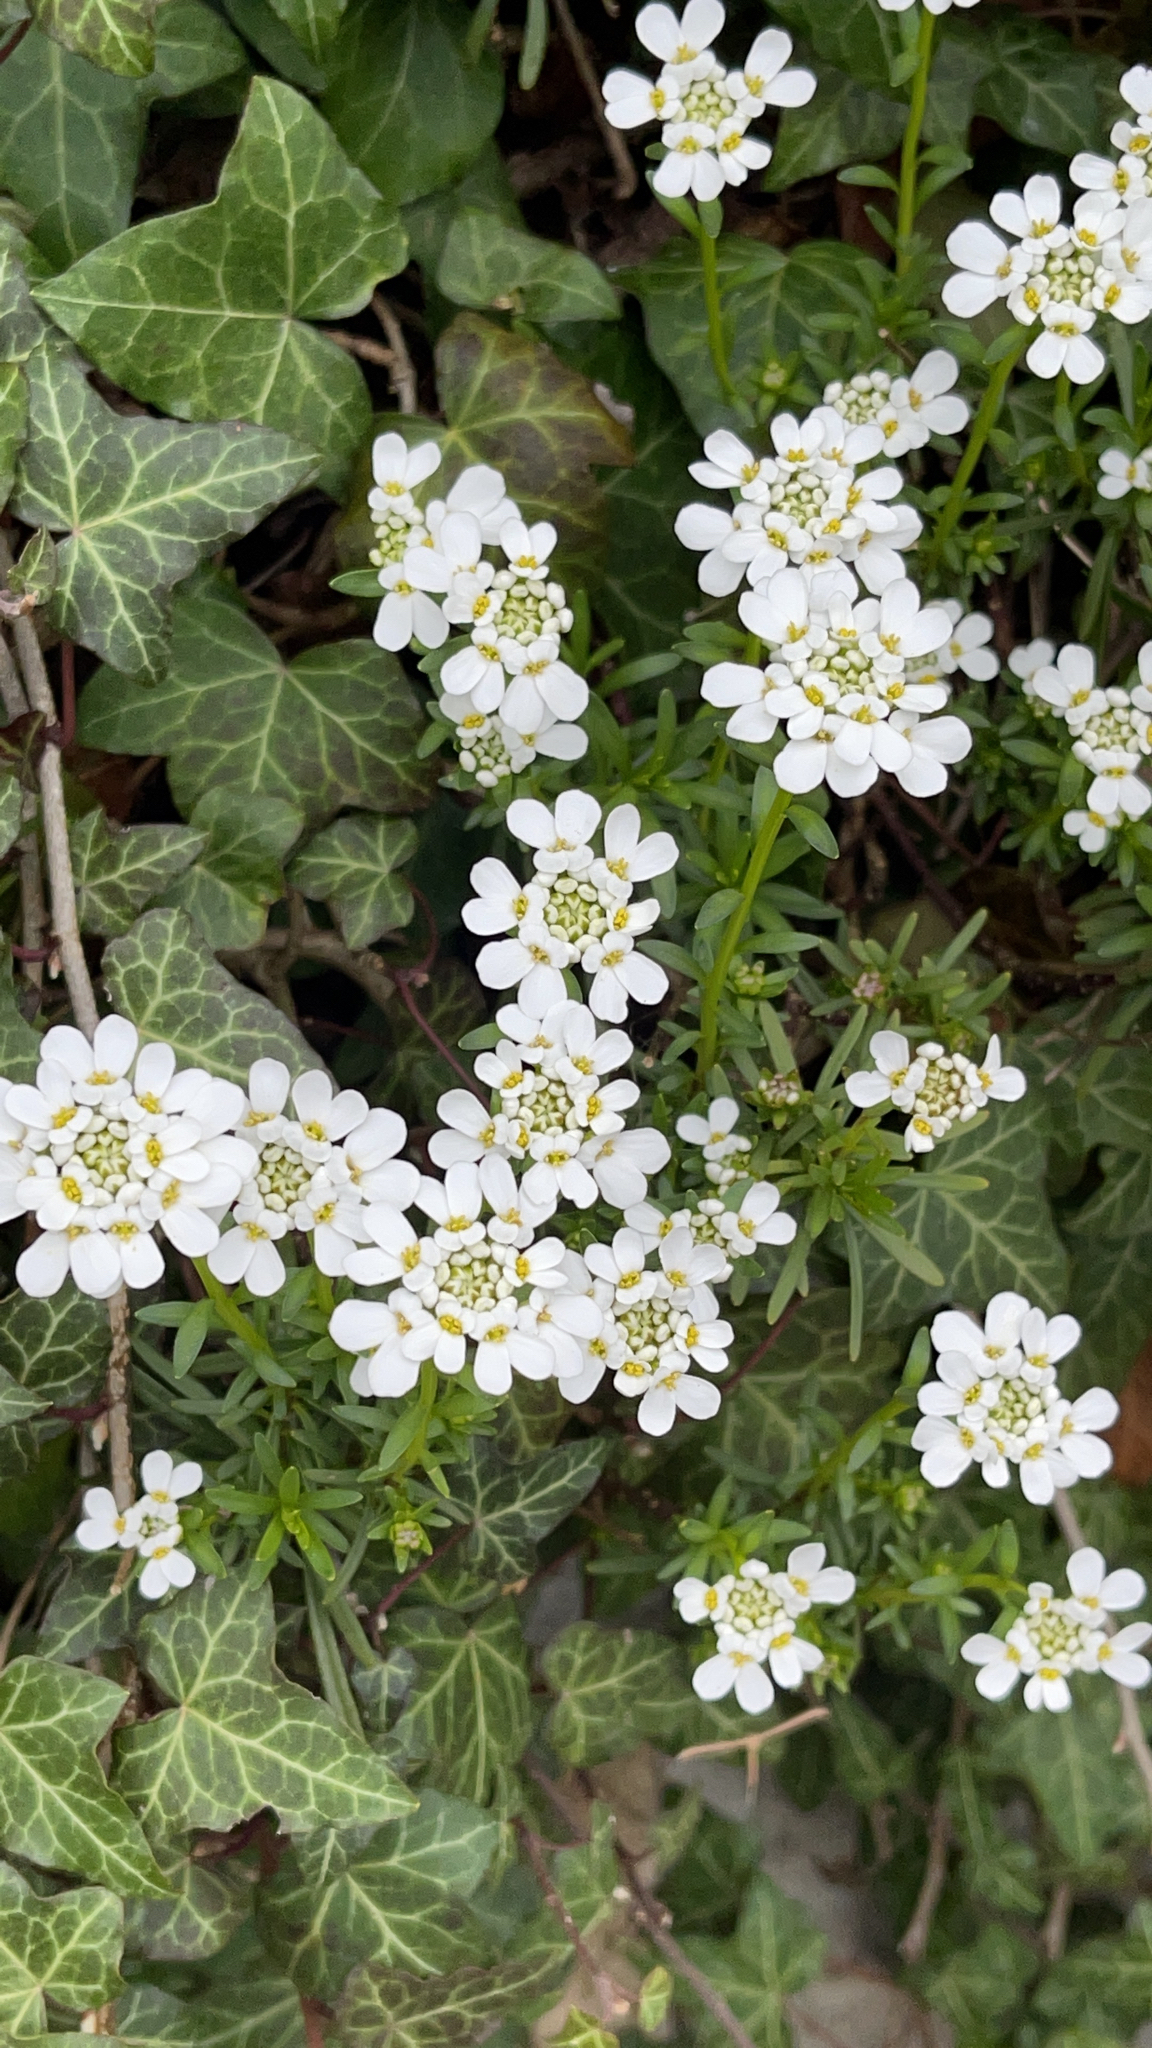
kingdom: Plantae
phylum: Tracheophyta
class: Magnoliopsida
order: Brassicales
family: Brassicaceae
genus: Iberis
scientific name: Iberis sempervirens
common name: Evergreen candytuft
